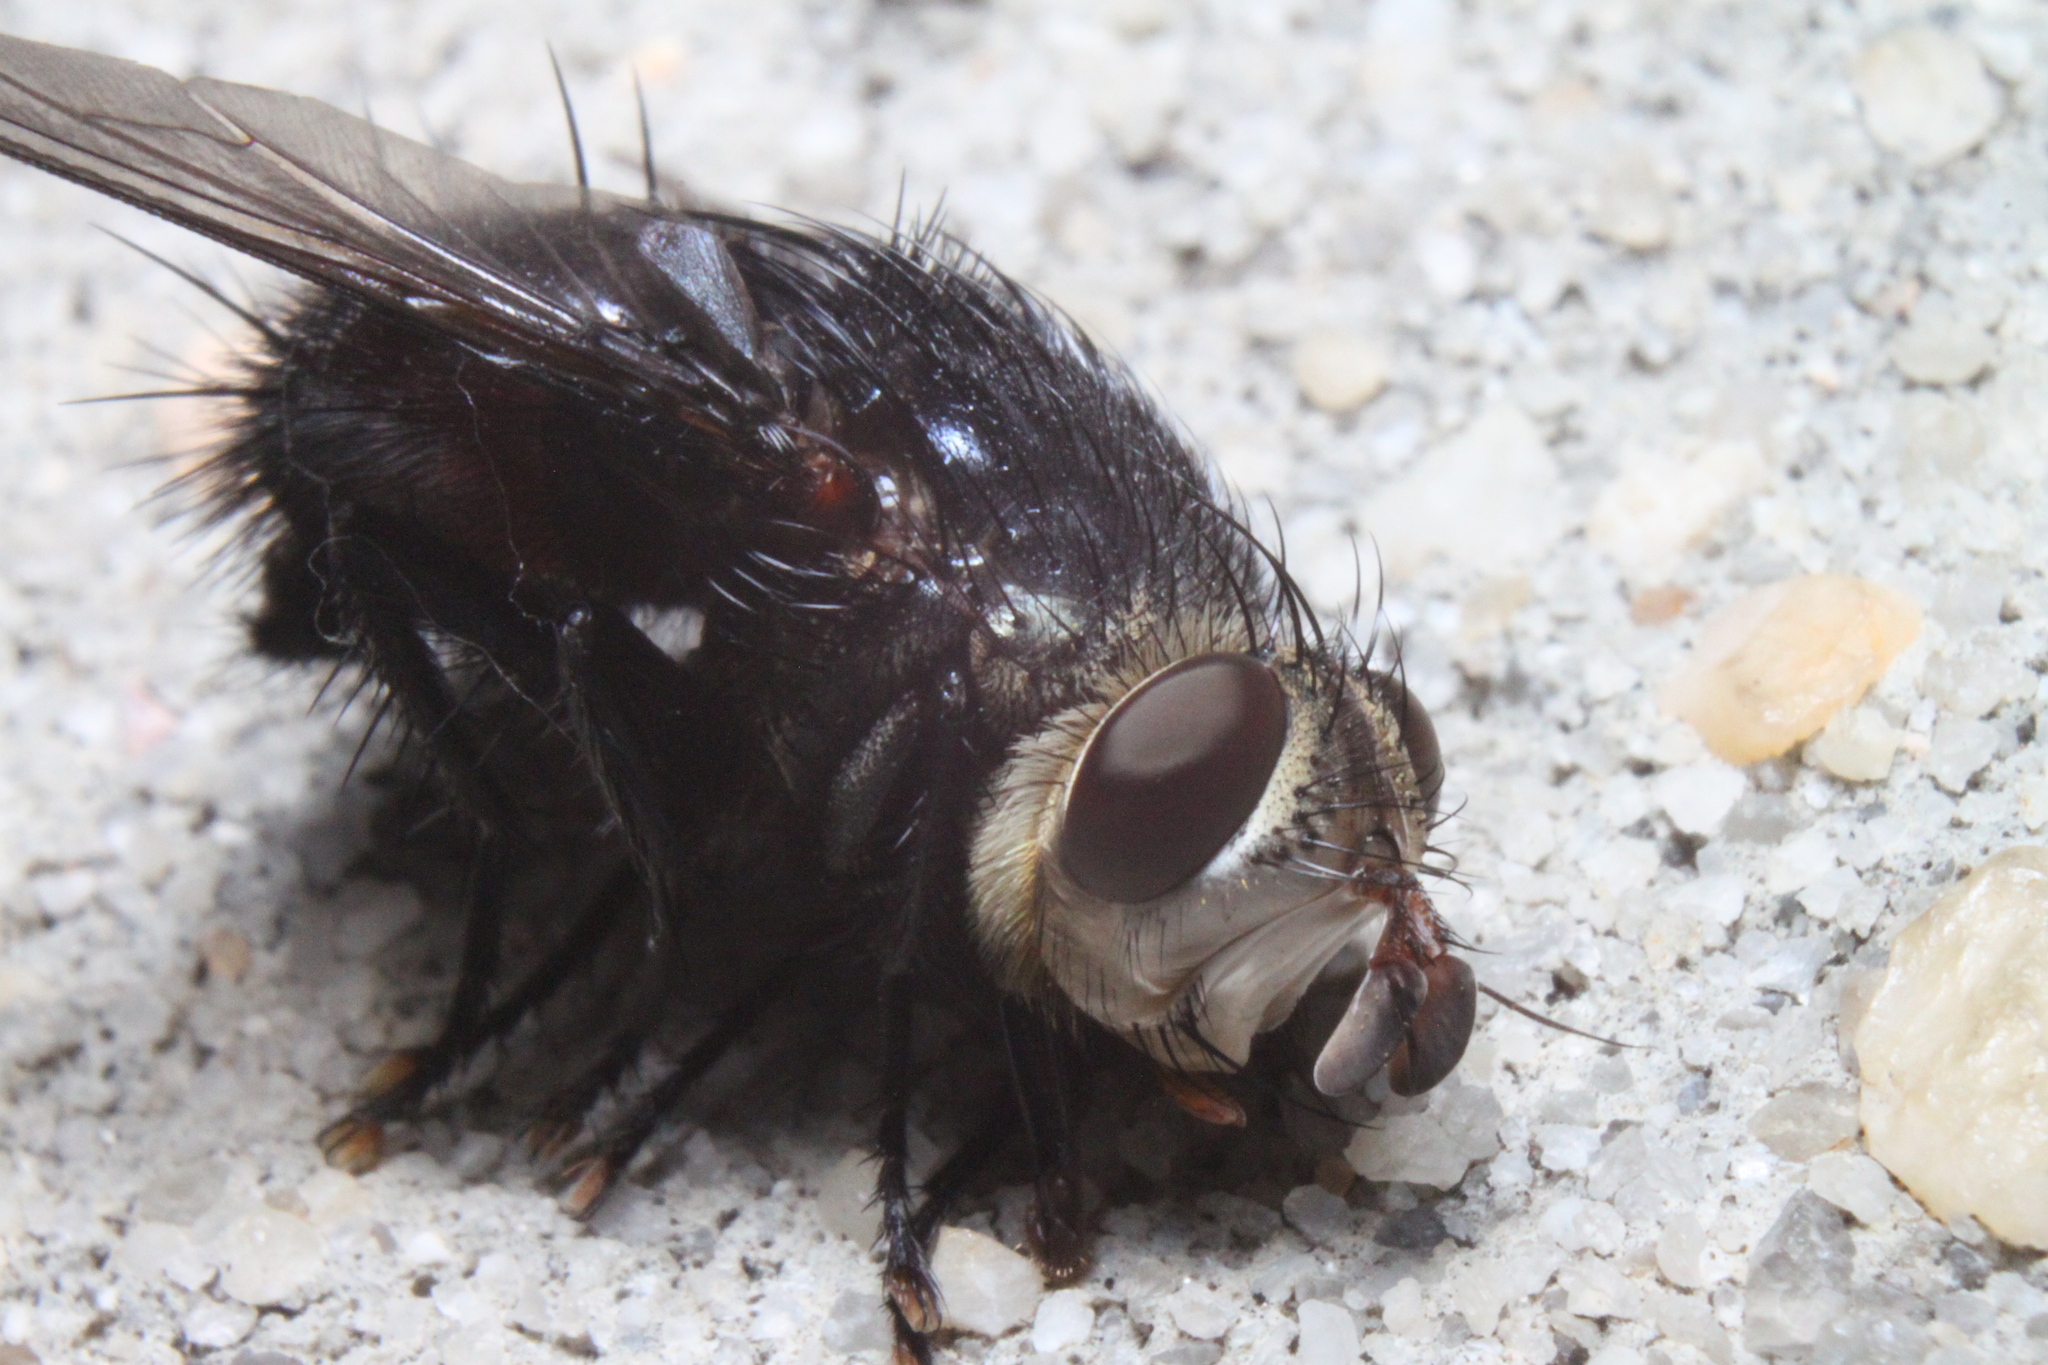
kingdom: Animalia
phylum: Arthropoda
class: Insecta
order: Diptera
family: Tachinidae
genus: Archytas
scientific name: Archytas metallicus
